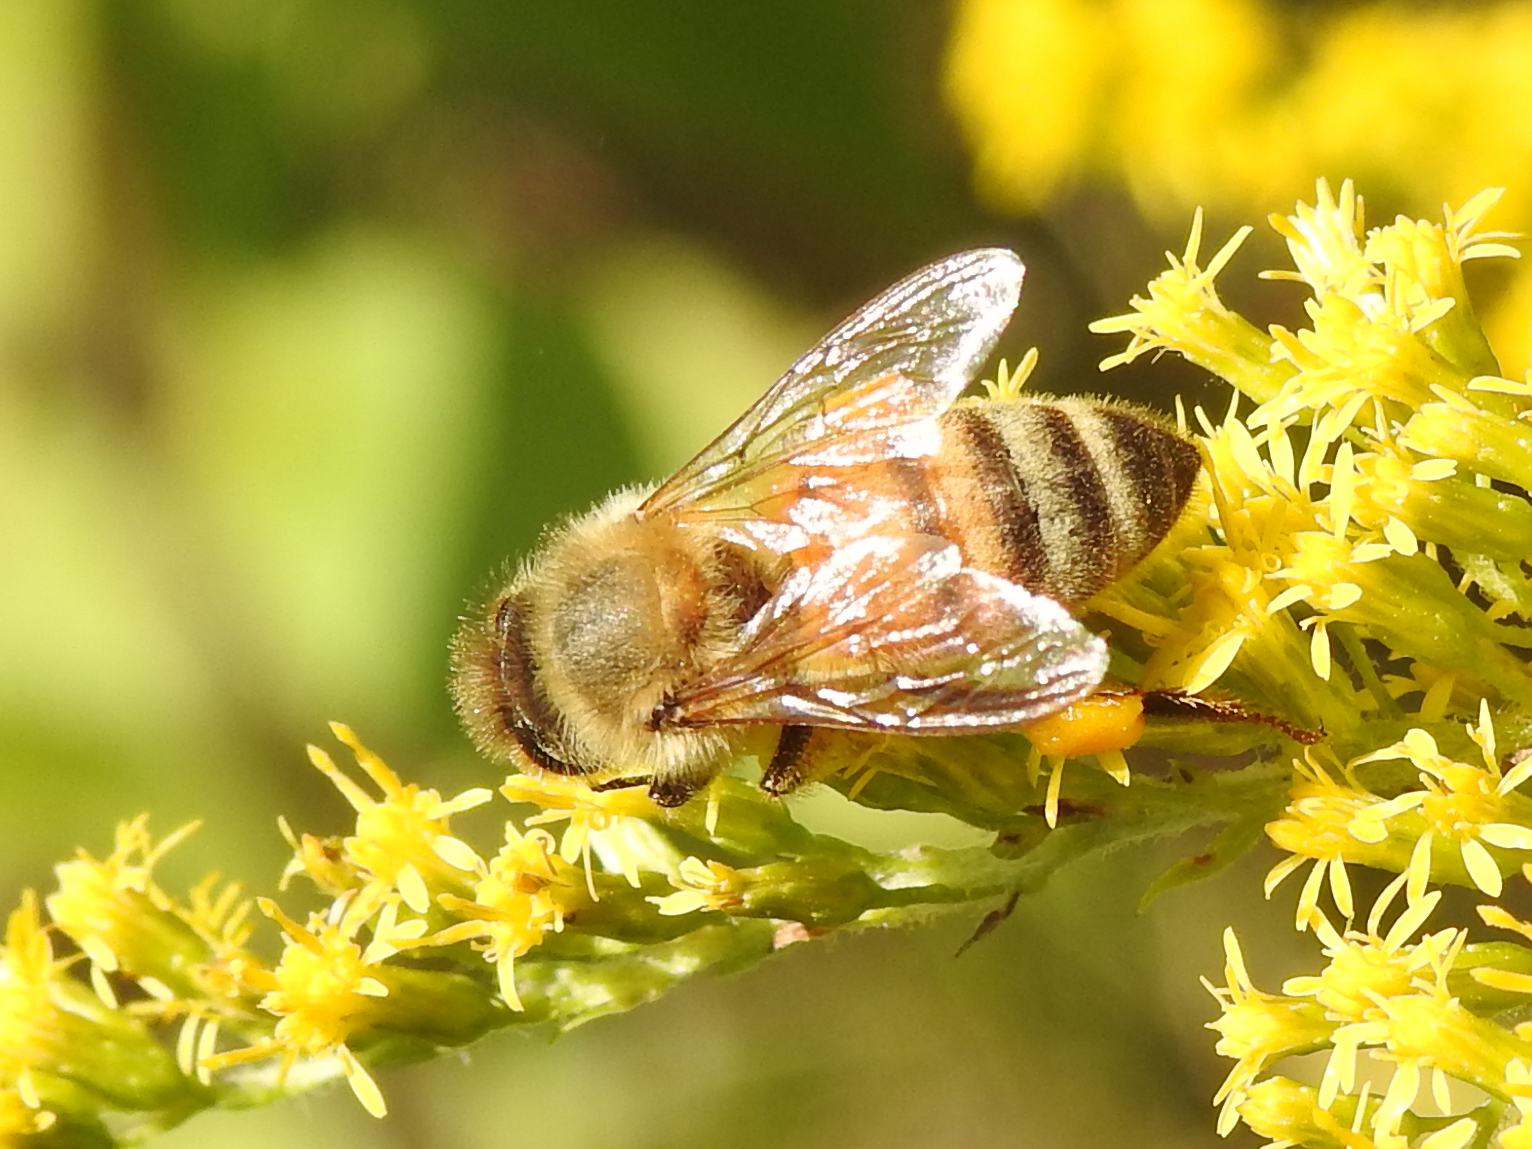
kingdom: Animalia
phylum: Arthropoda
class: Insecta
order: Hymenoptera
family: Apidae
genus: Apis
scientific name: Apis mellifera
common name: Honey bee
